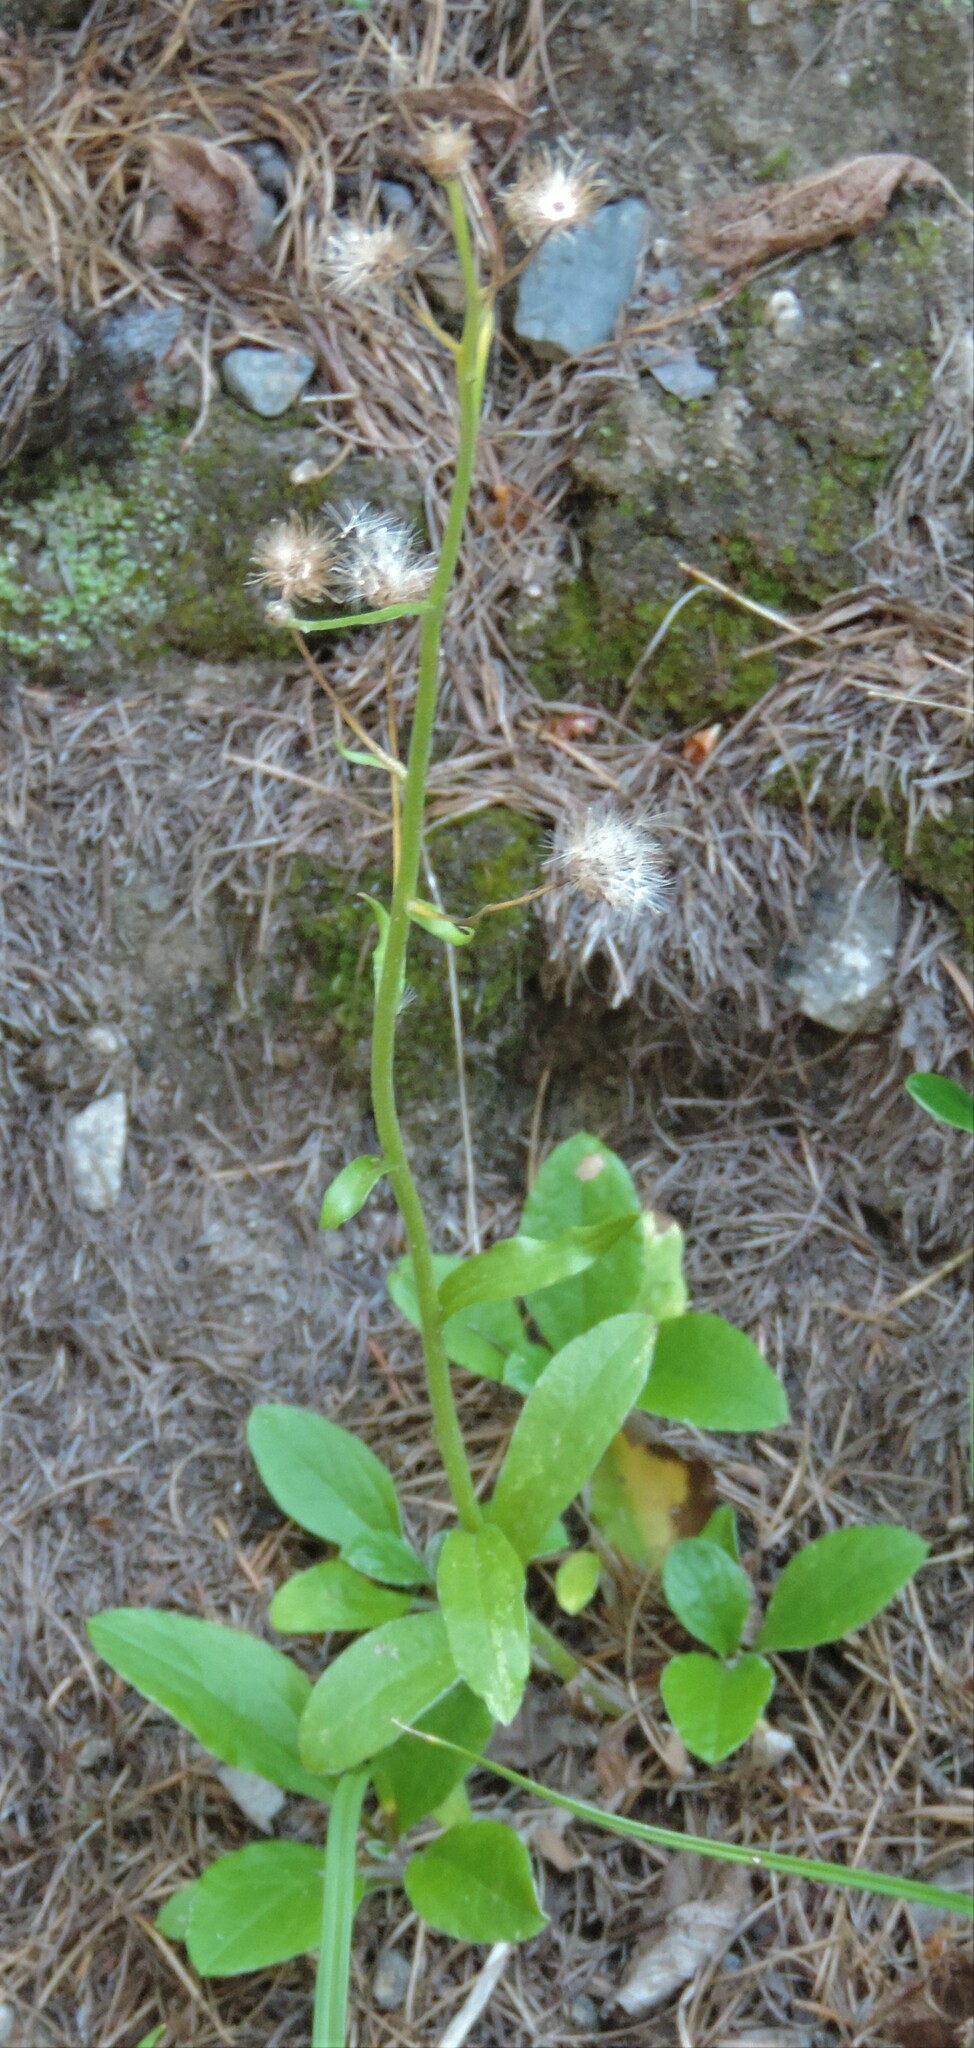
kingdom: Plantae
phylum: Tracheophyta
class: Magnoliopsida
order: Asterales
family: Asteraceae
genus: Antennaria
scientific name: Antennaria racemosa
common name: Racemose pussytoes
